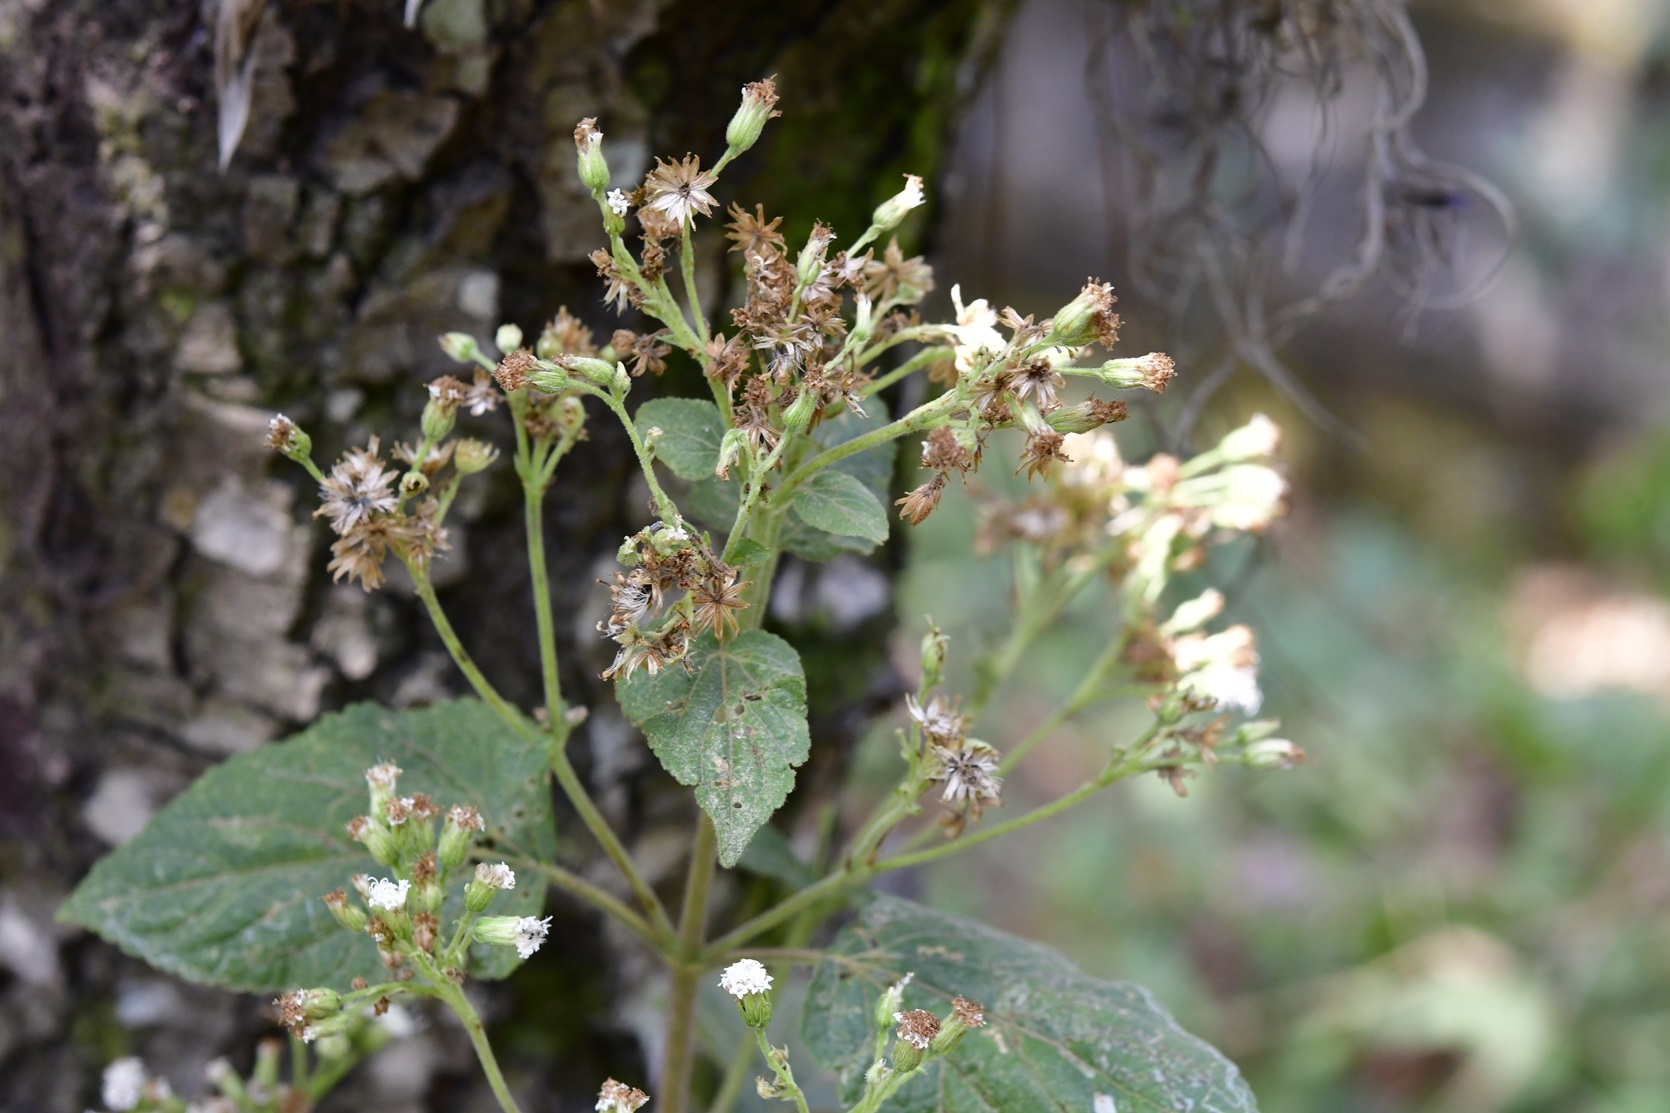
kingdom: Plantae
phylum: Tracheophyta
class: Magnoliopsida
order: Asterales
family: Asteraceae
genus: Ageratina
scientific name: Ageratina vernalis
